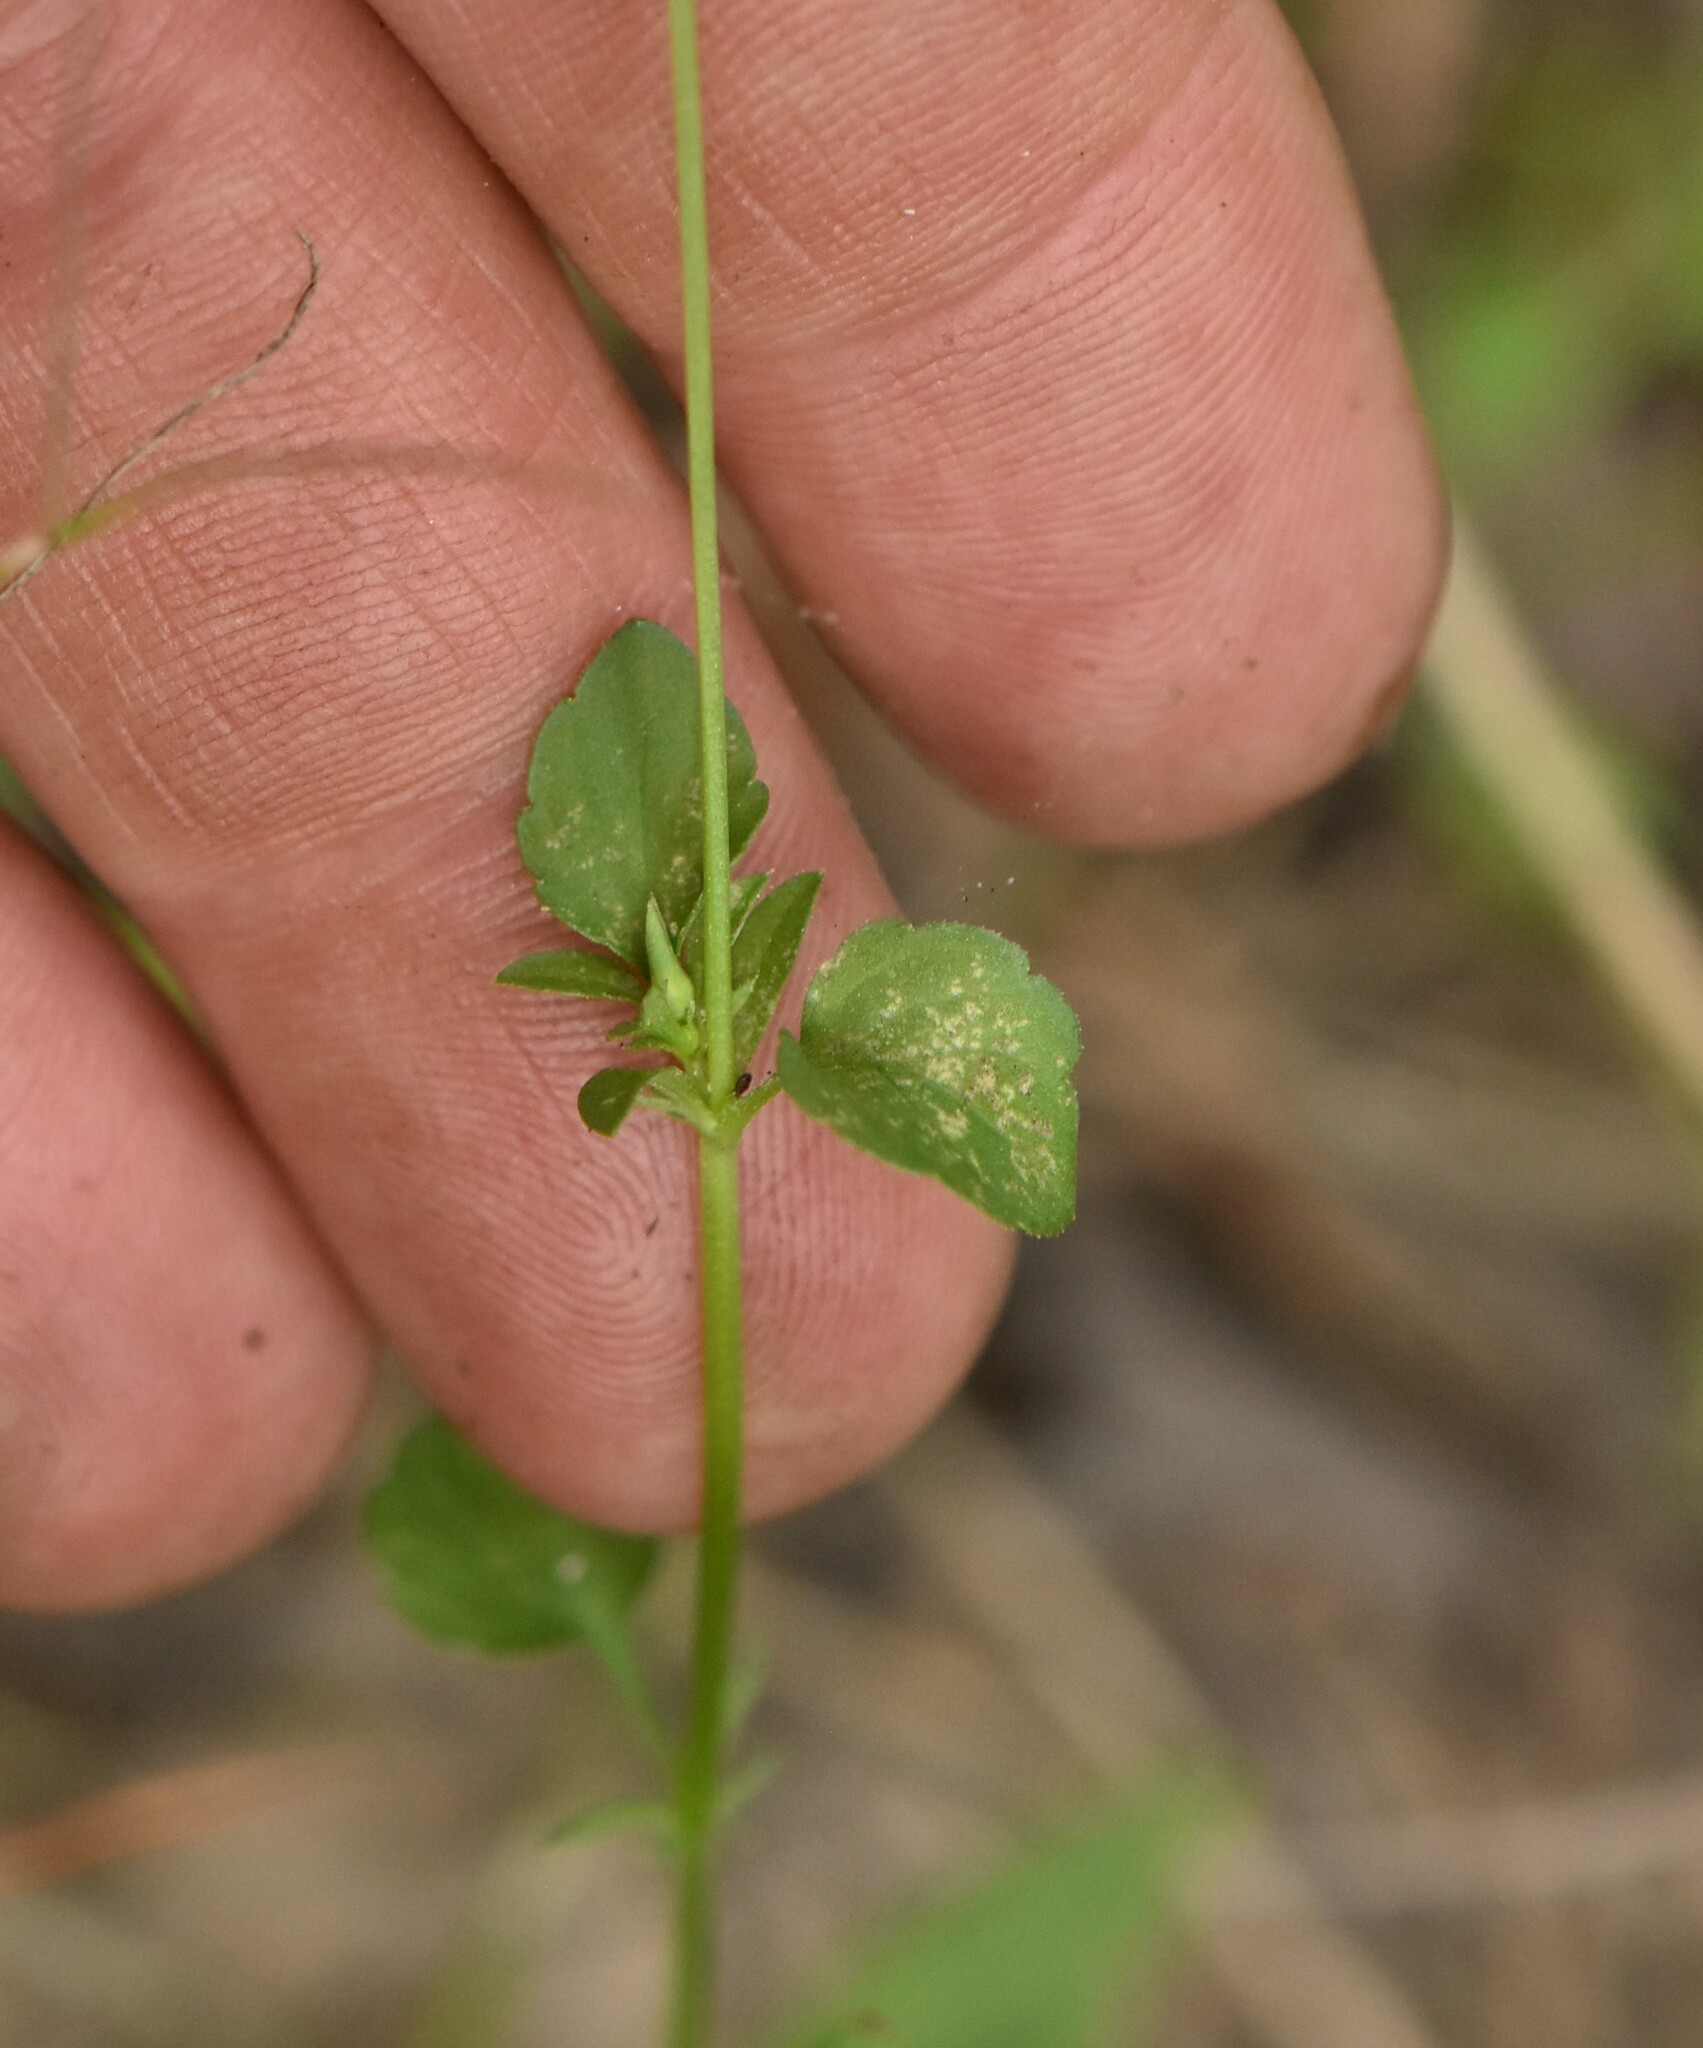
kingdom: Plantae
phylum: Tracheophyta
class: Magnoliopsida
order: Malpighiales
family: Violaceae
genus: Viola
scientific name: Viola arvensis
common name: Field pansy
